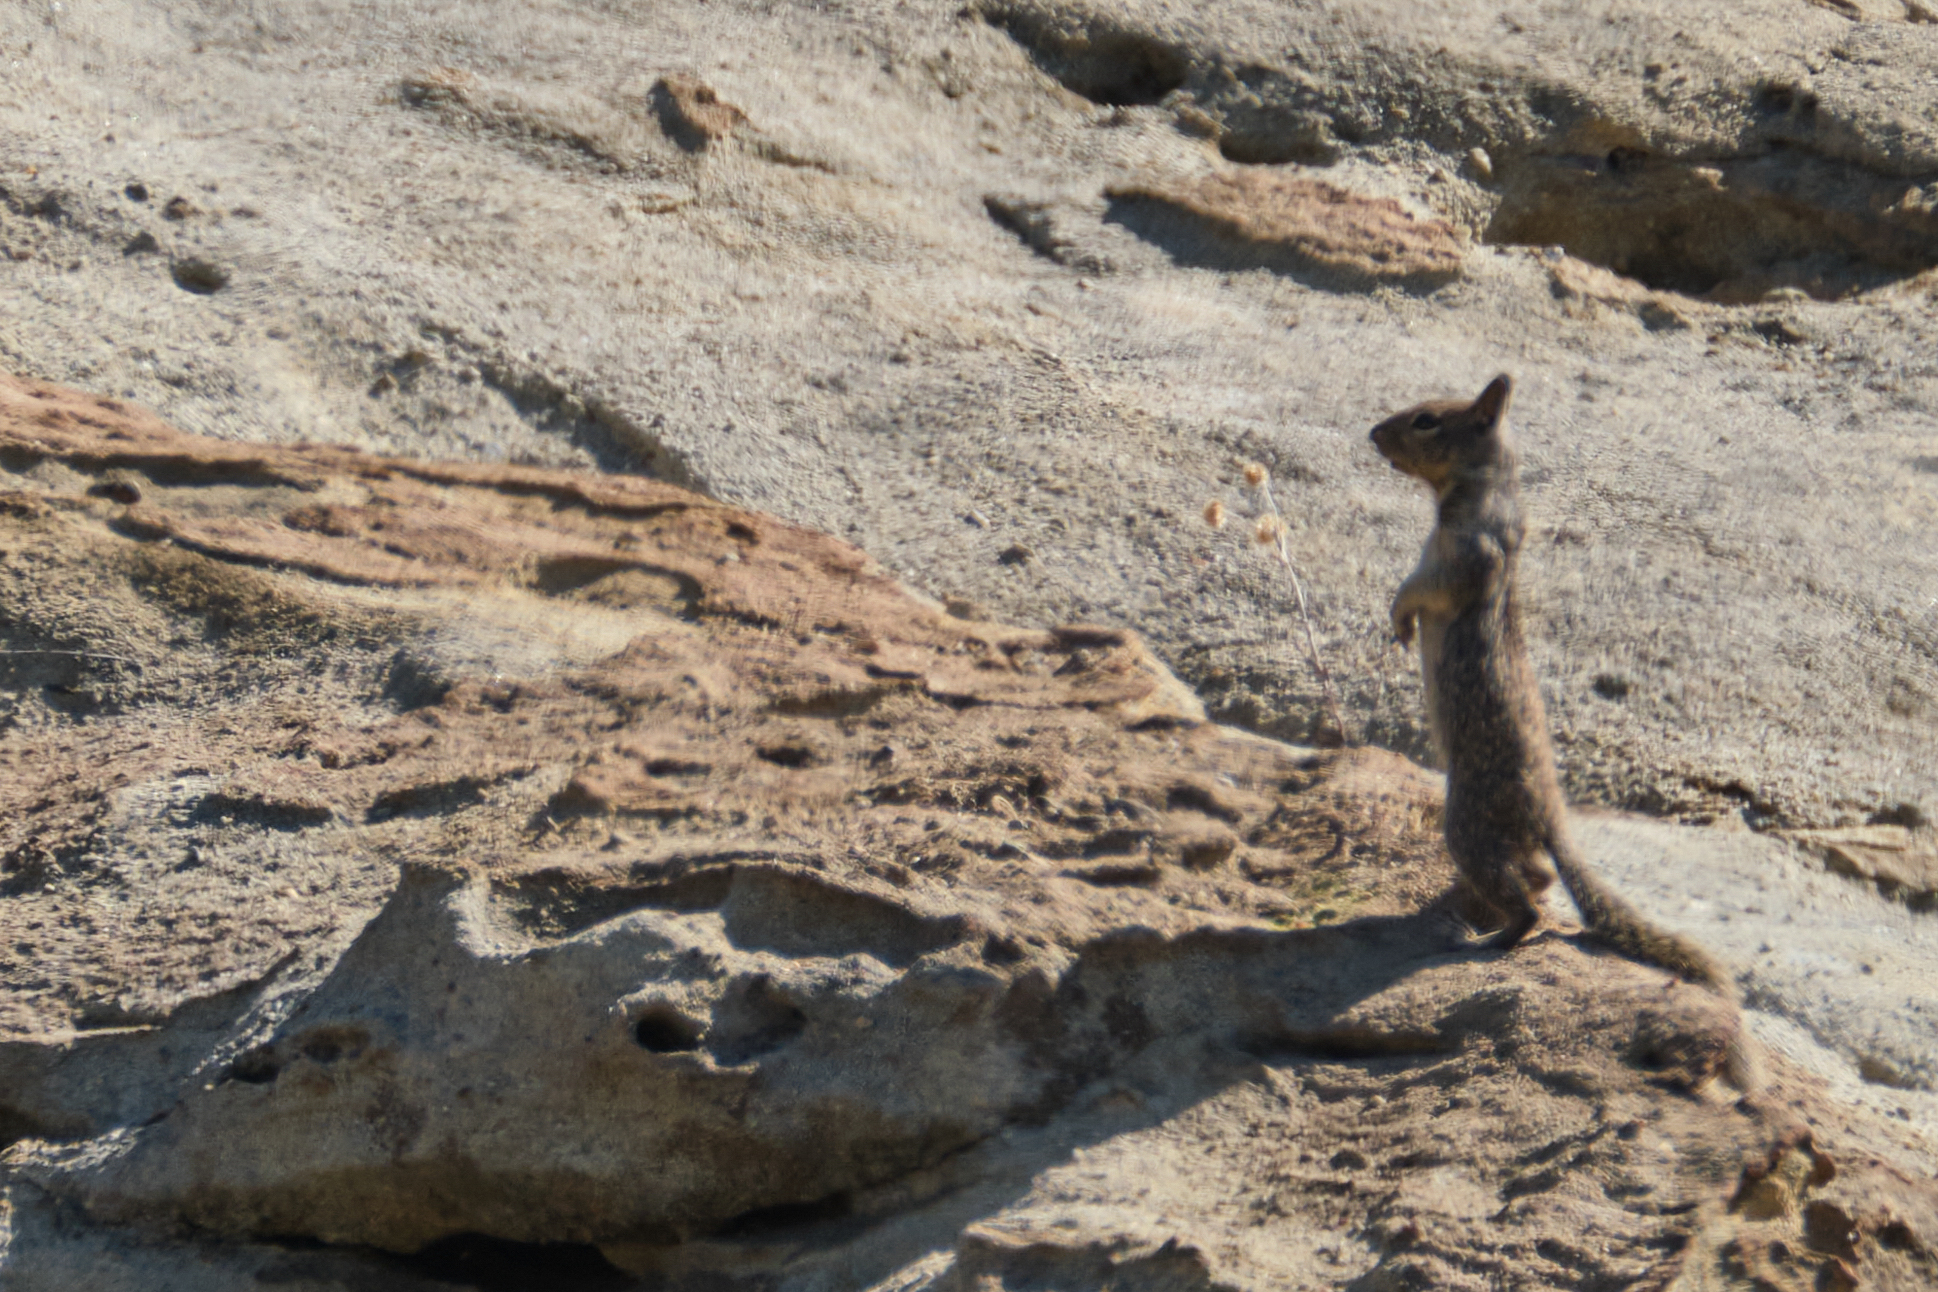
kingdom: Animalia
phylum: Chordata
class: Mammalia
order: Rodentia
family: Sciuridae
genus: Otospermophilus
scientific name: Otospermophilus beecheyi
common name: California ground squirrel
